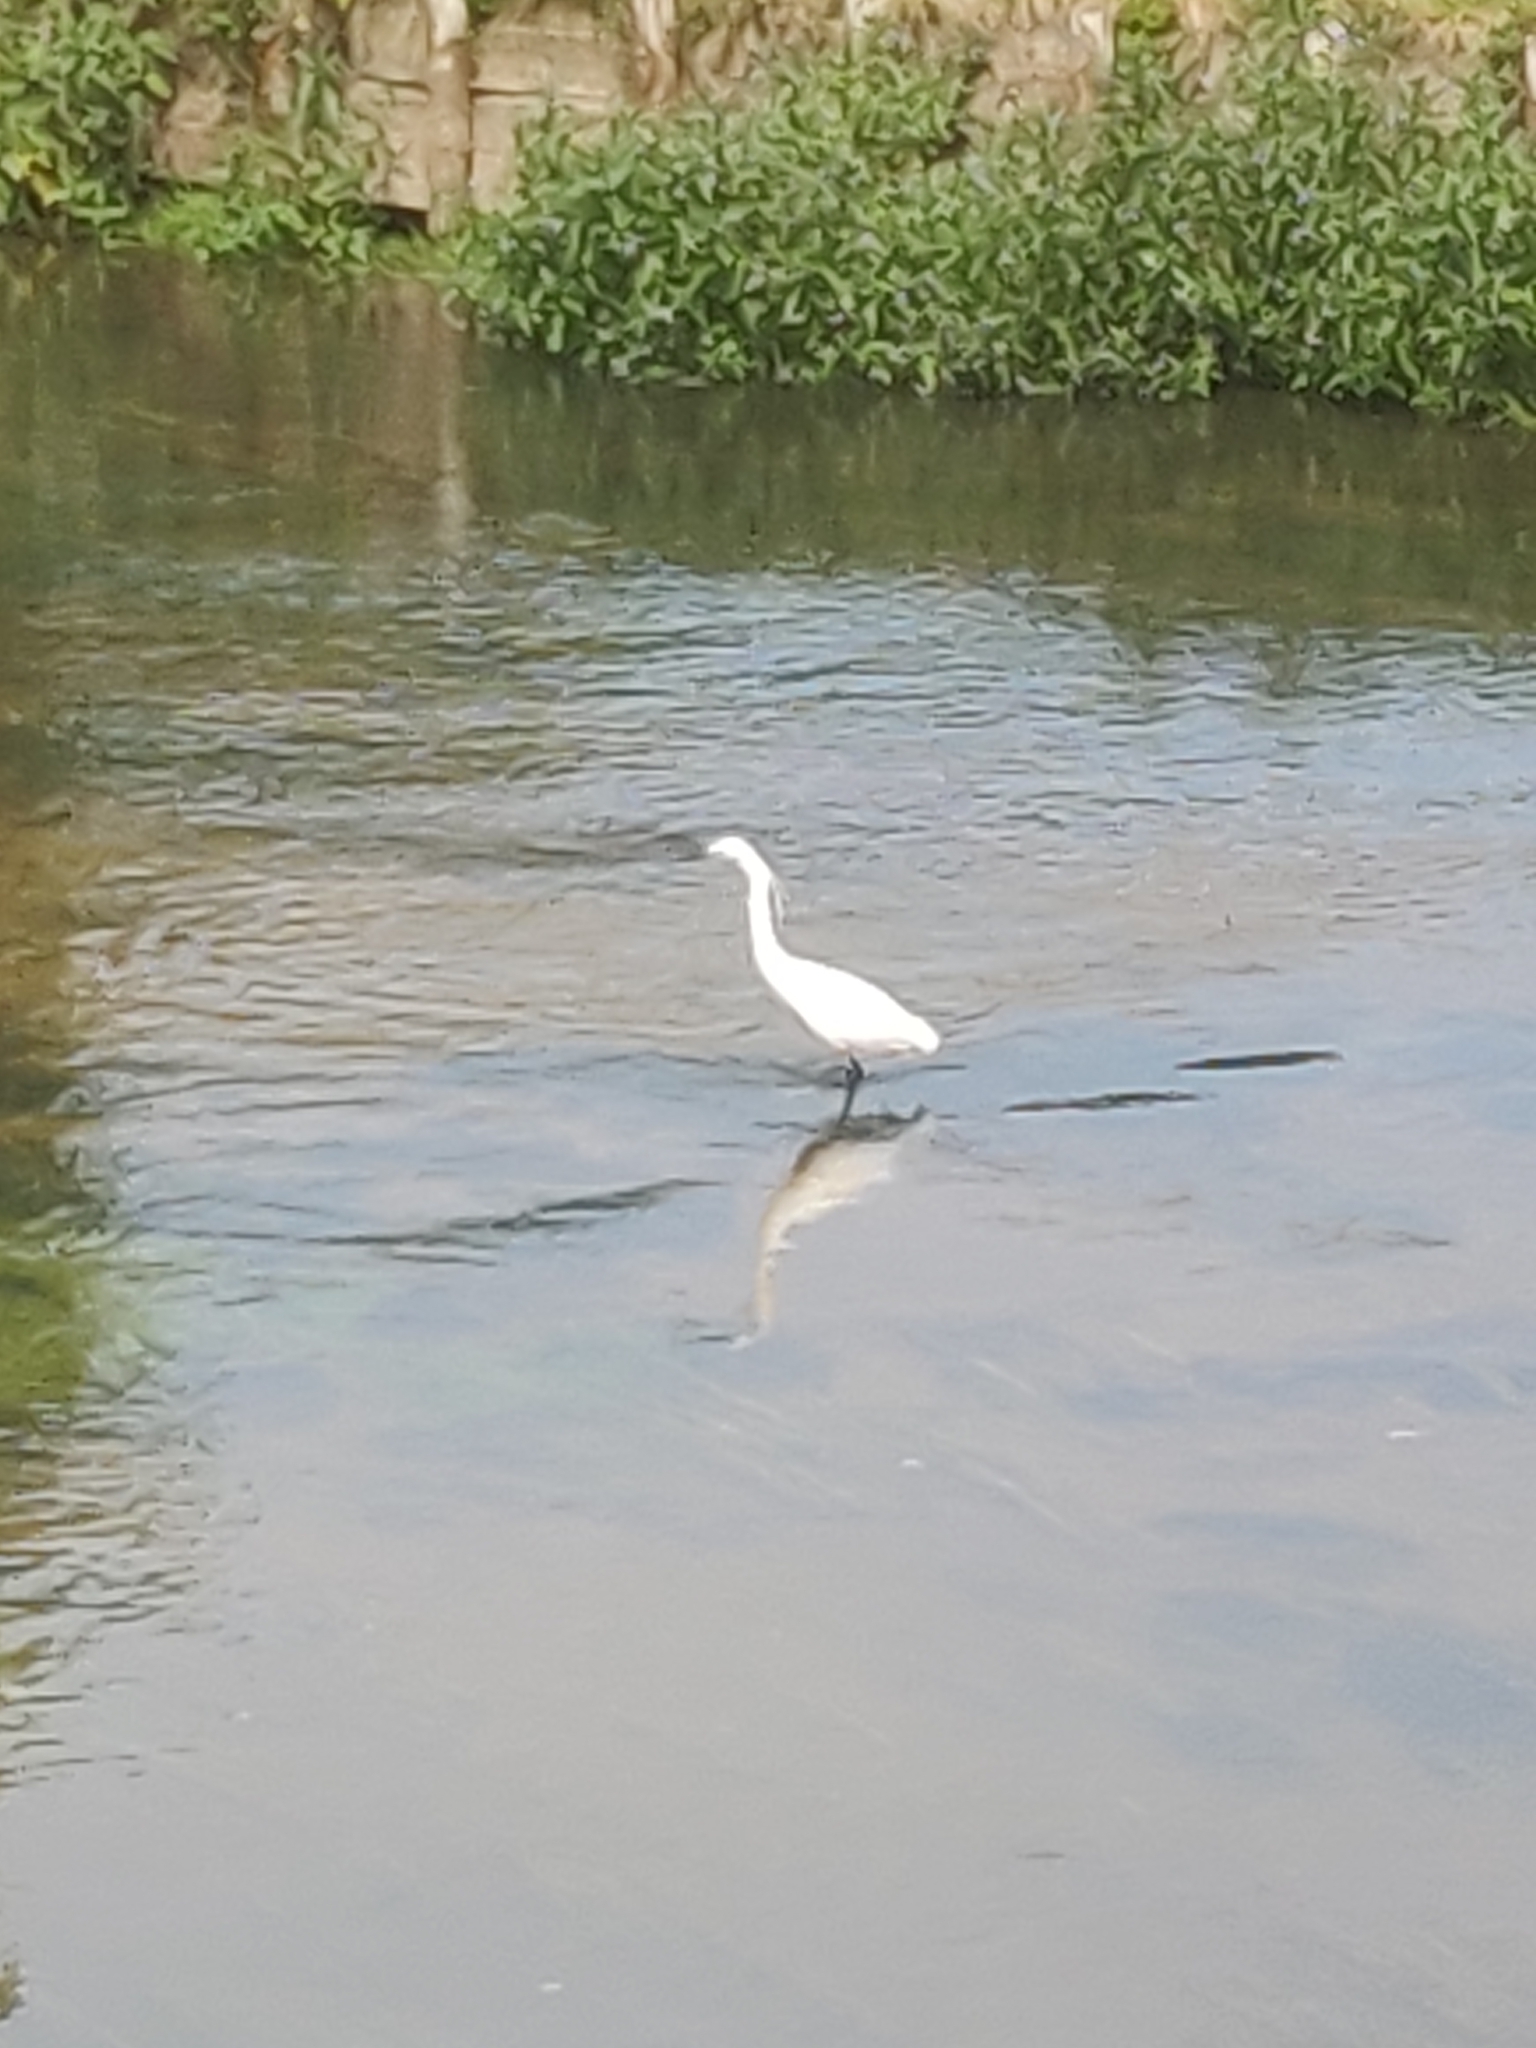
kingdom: Animalia
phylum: Chordata
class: Aves
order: Pelecaniformes
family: Ardeidae
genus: Egretta
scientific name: Egretta garzetta
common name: Little egret
